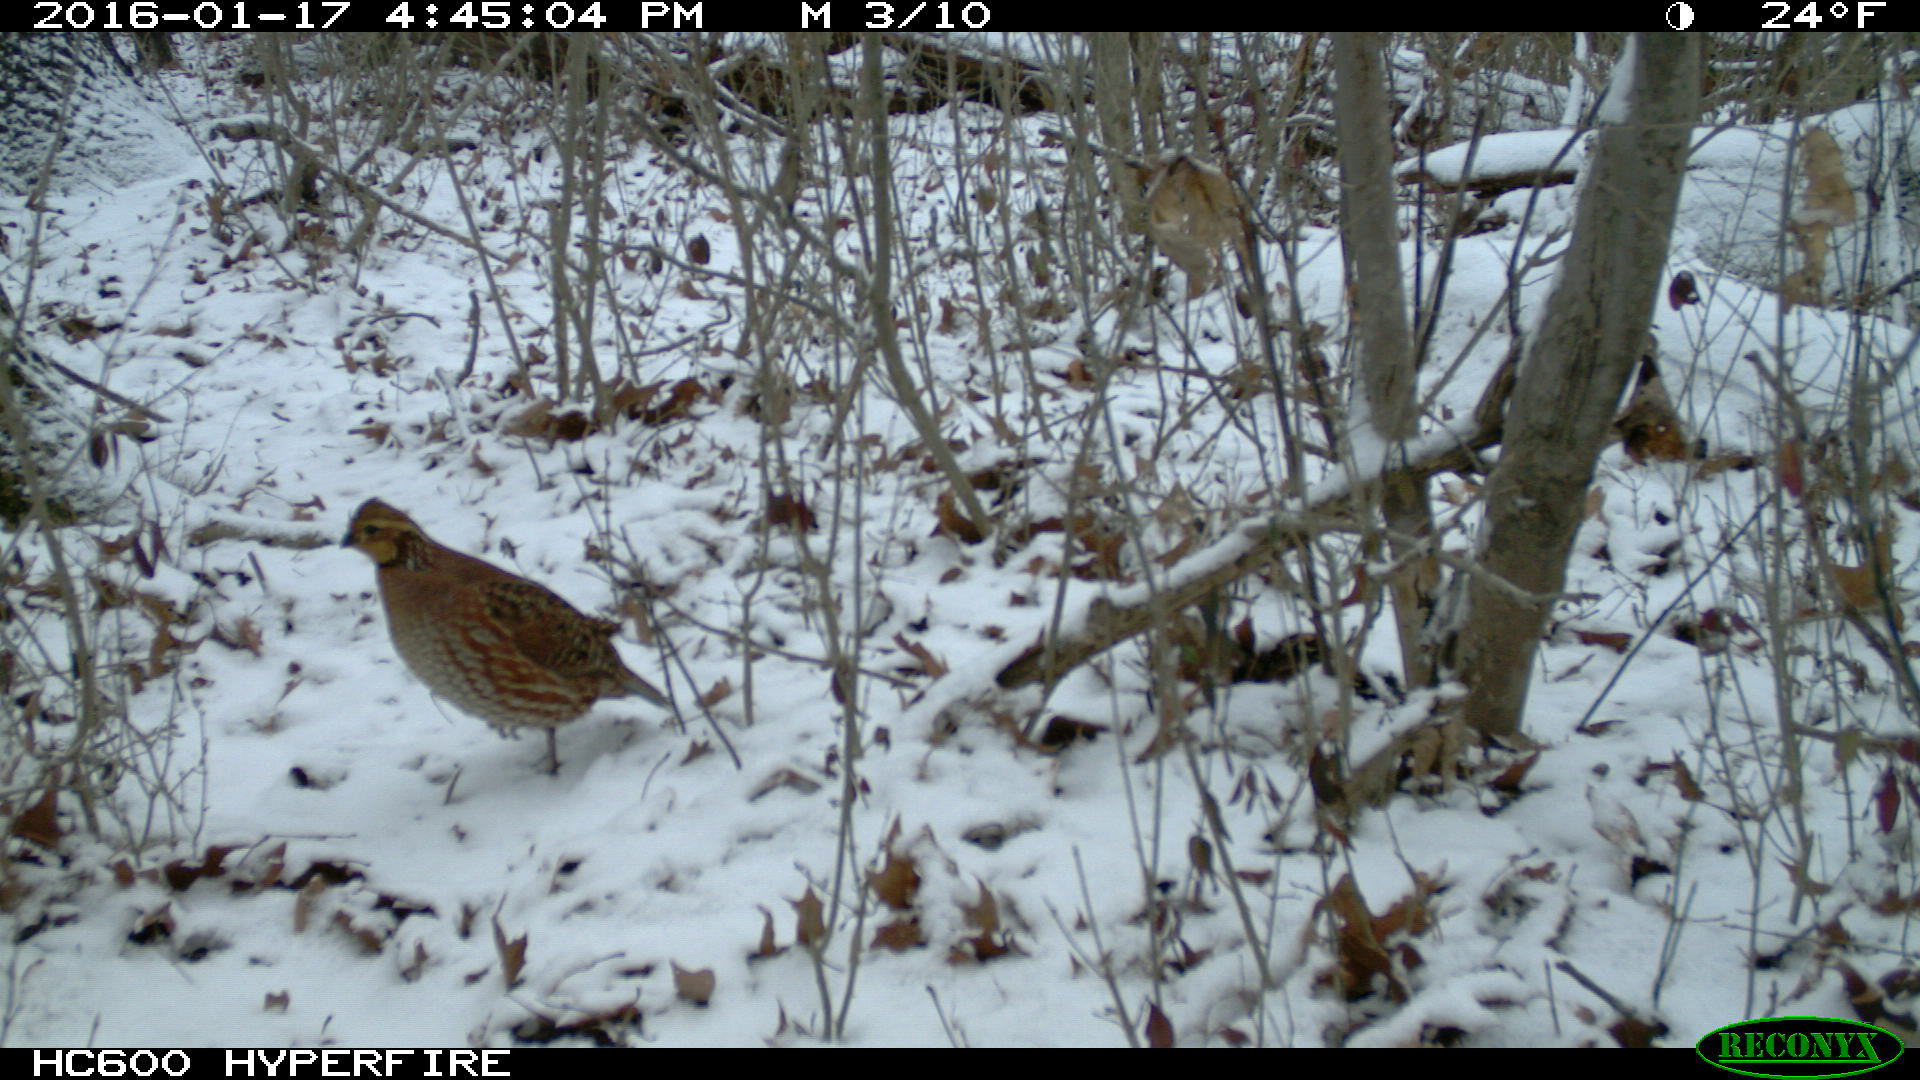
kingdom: Animalia
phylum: Chordata
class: Aves
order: Galliformes
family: Odontophoridae
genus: Colinus
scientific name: Colinus virginianus
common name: Northern bobwhite
